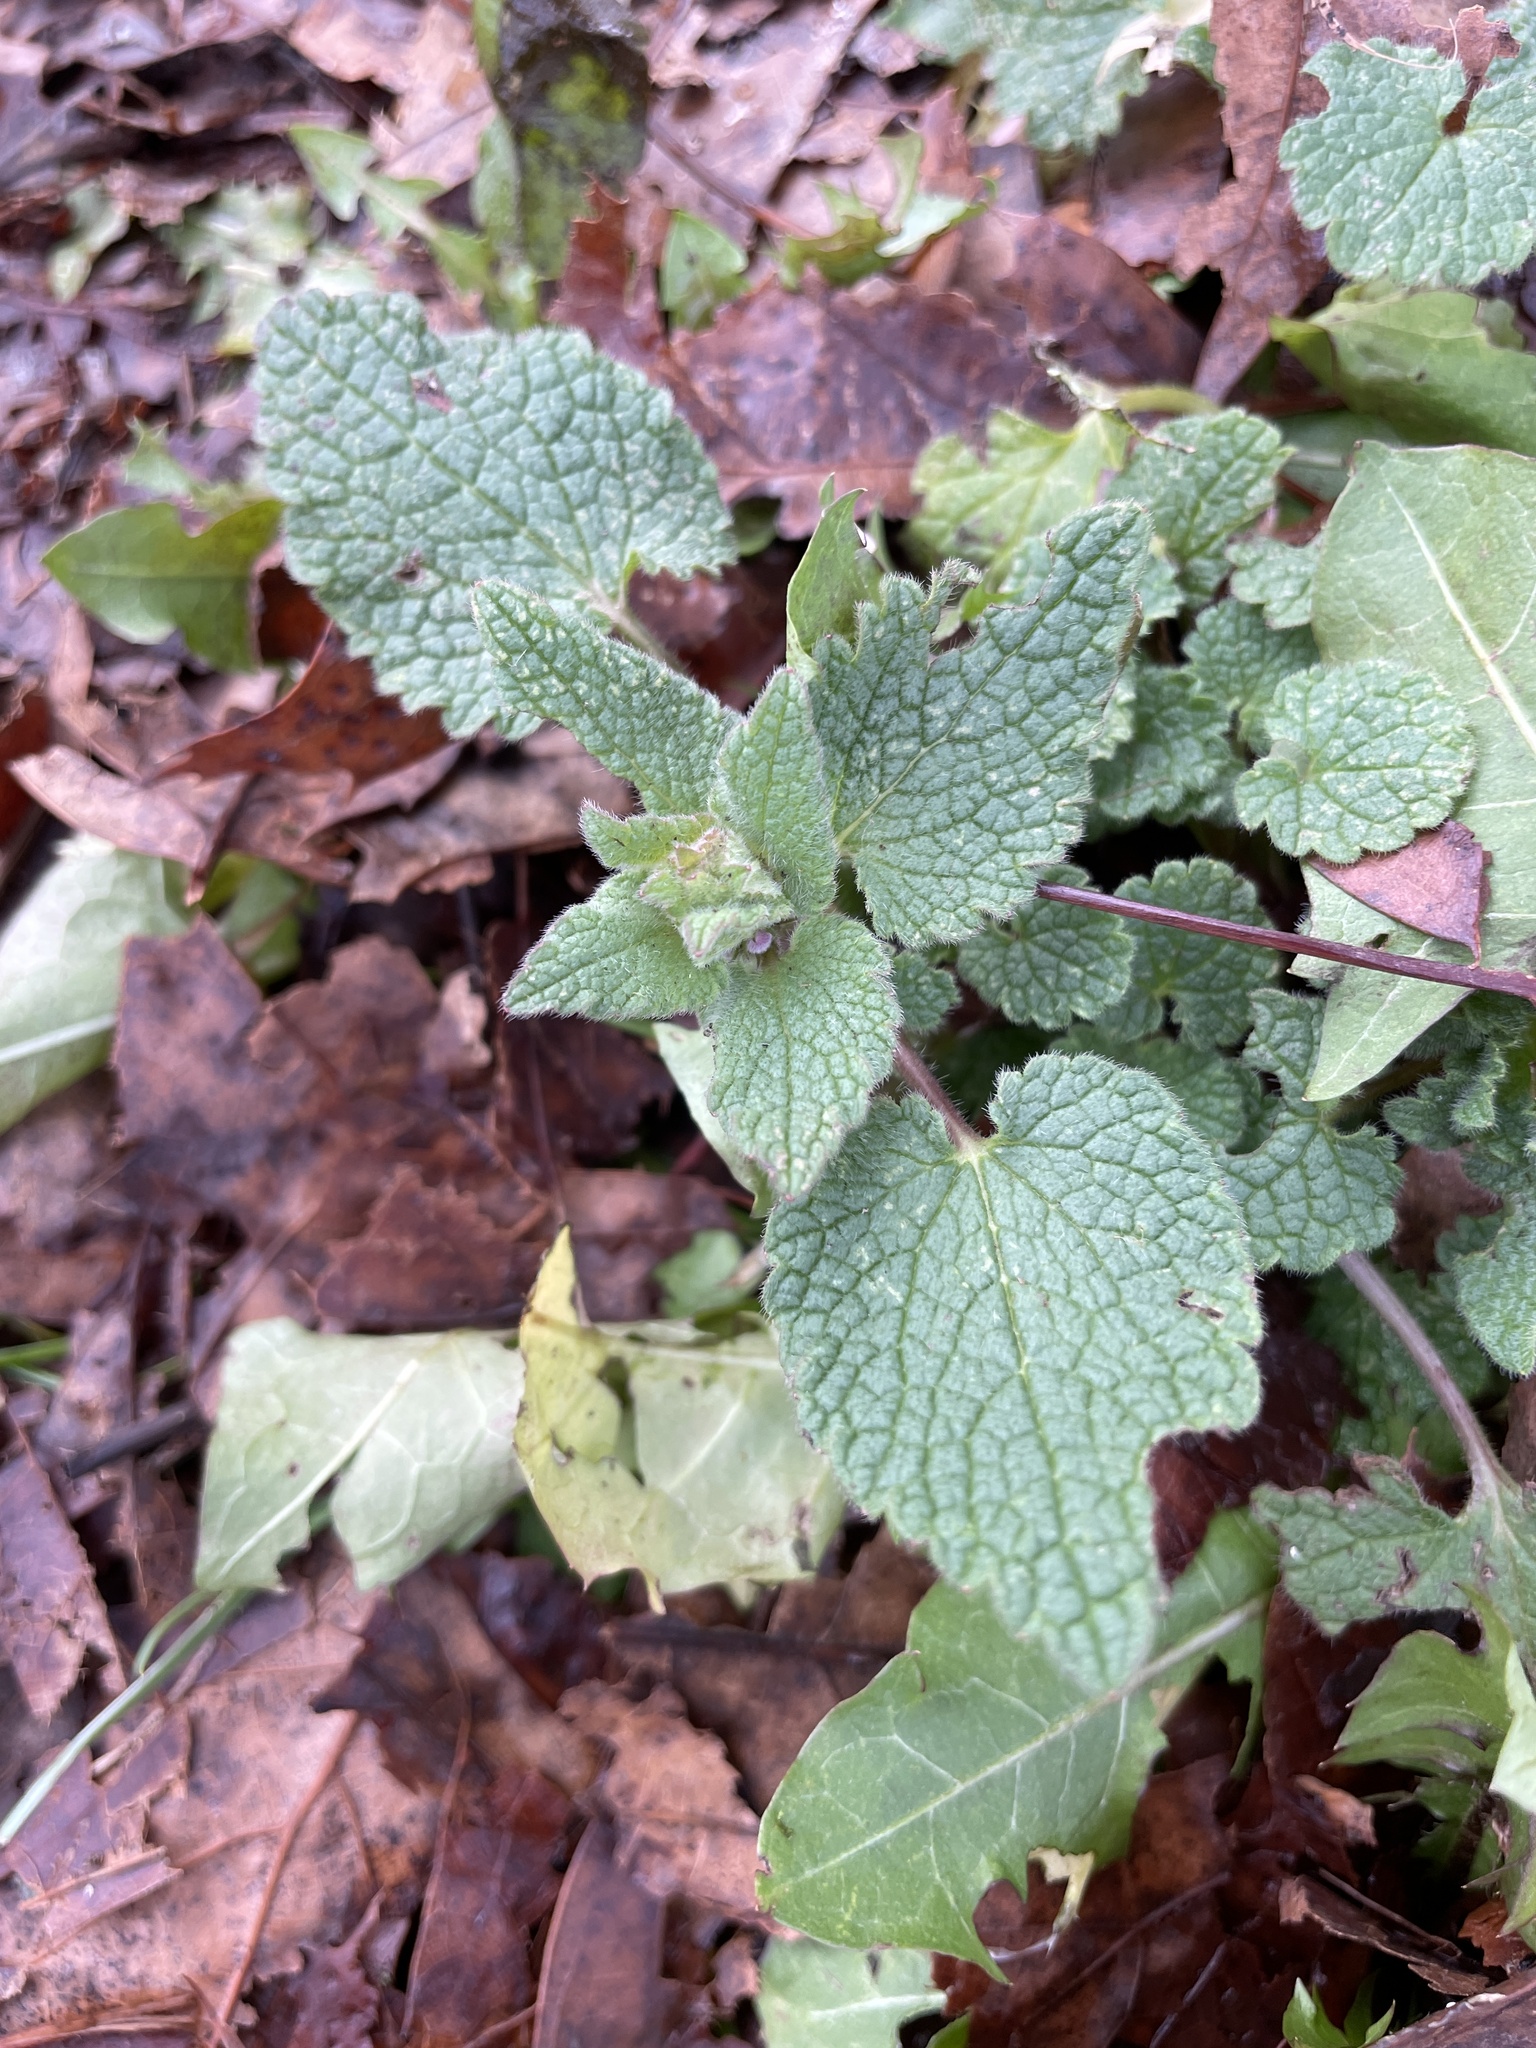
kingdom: Plantae
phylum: Tracheophyta
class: Magnoliopsida
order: Lamiales
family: Lamiaceae
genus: Lamium
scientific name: Lamium purpureum
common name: Red dead-nettle
